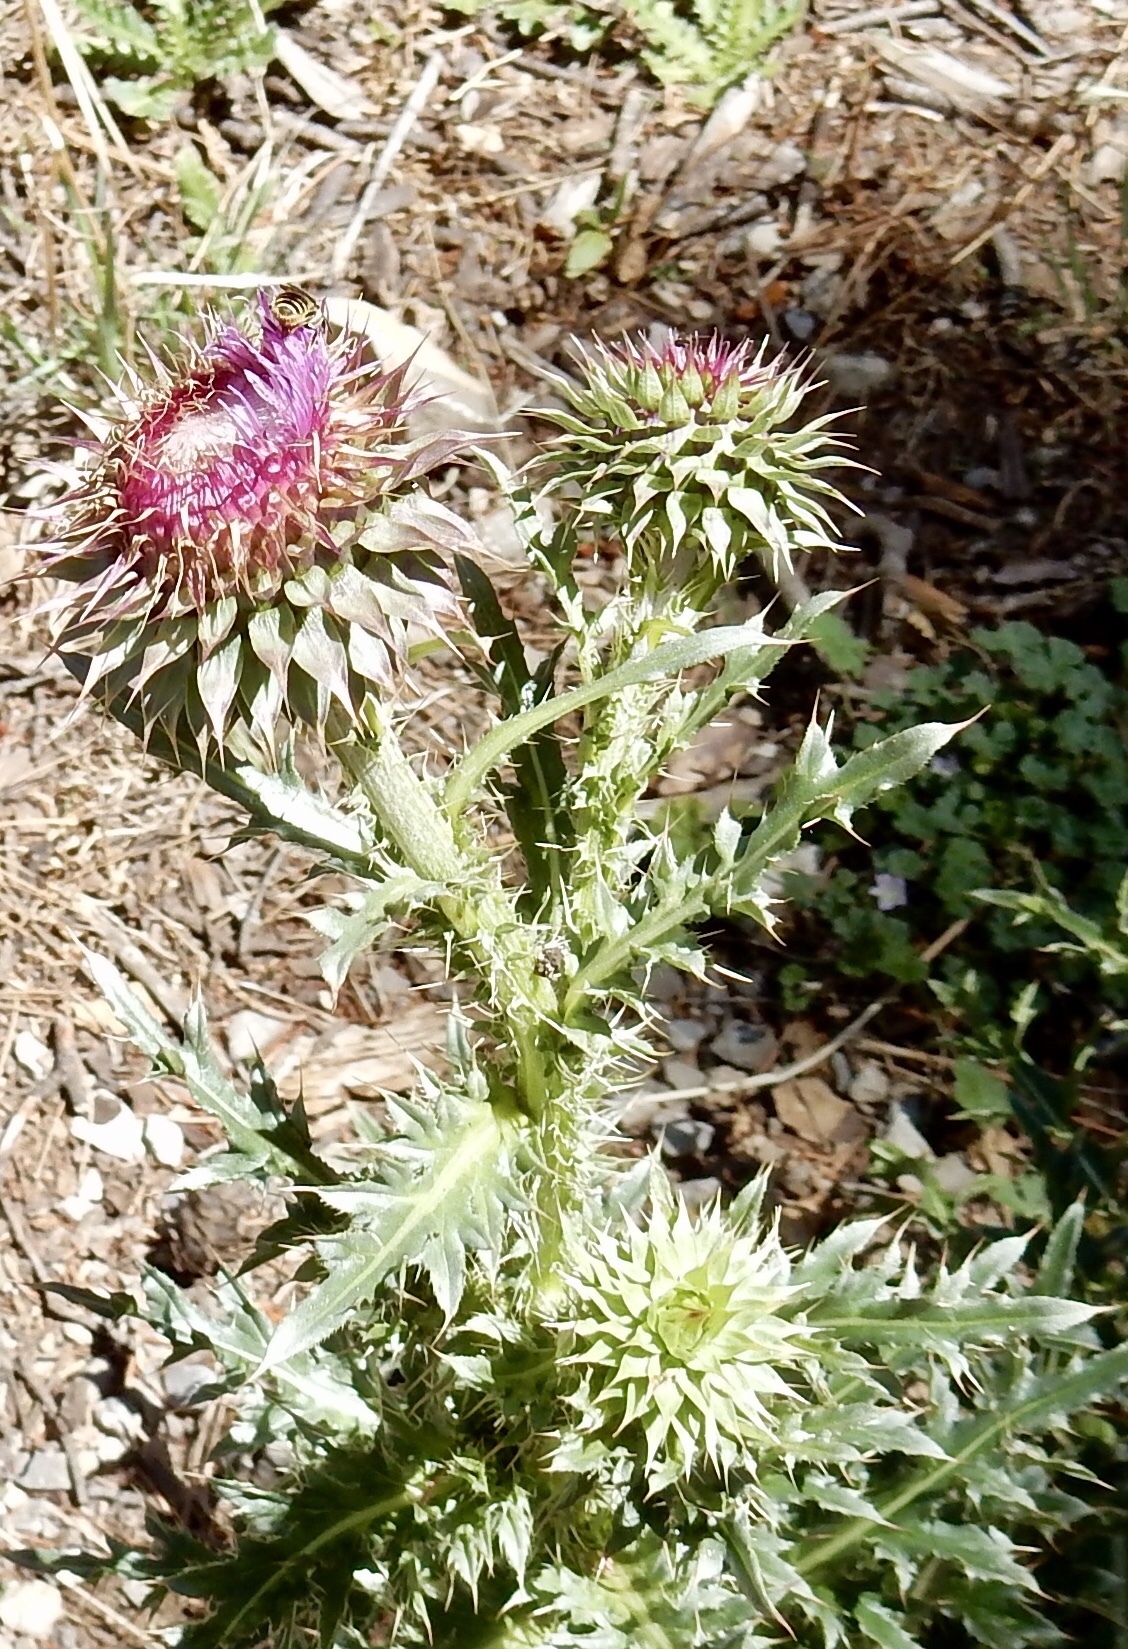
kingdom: Plantae
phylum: Tracheophyta
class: Magnoliopsida
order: Asterales
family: Asteraceae
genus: Carduus
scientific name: Carduus nutans
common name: Musk thistle
